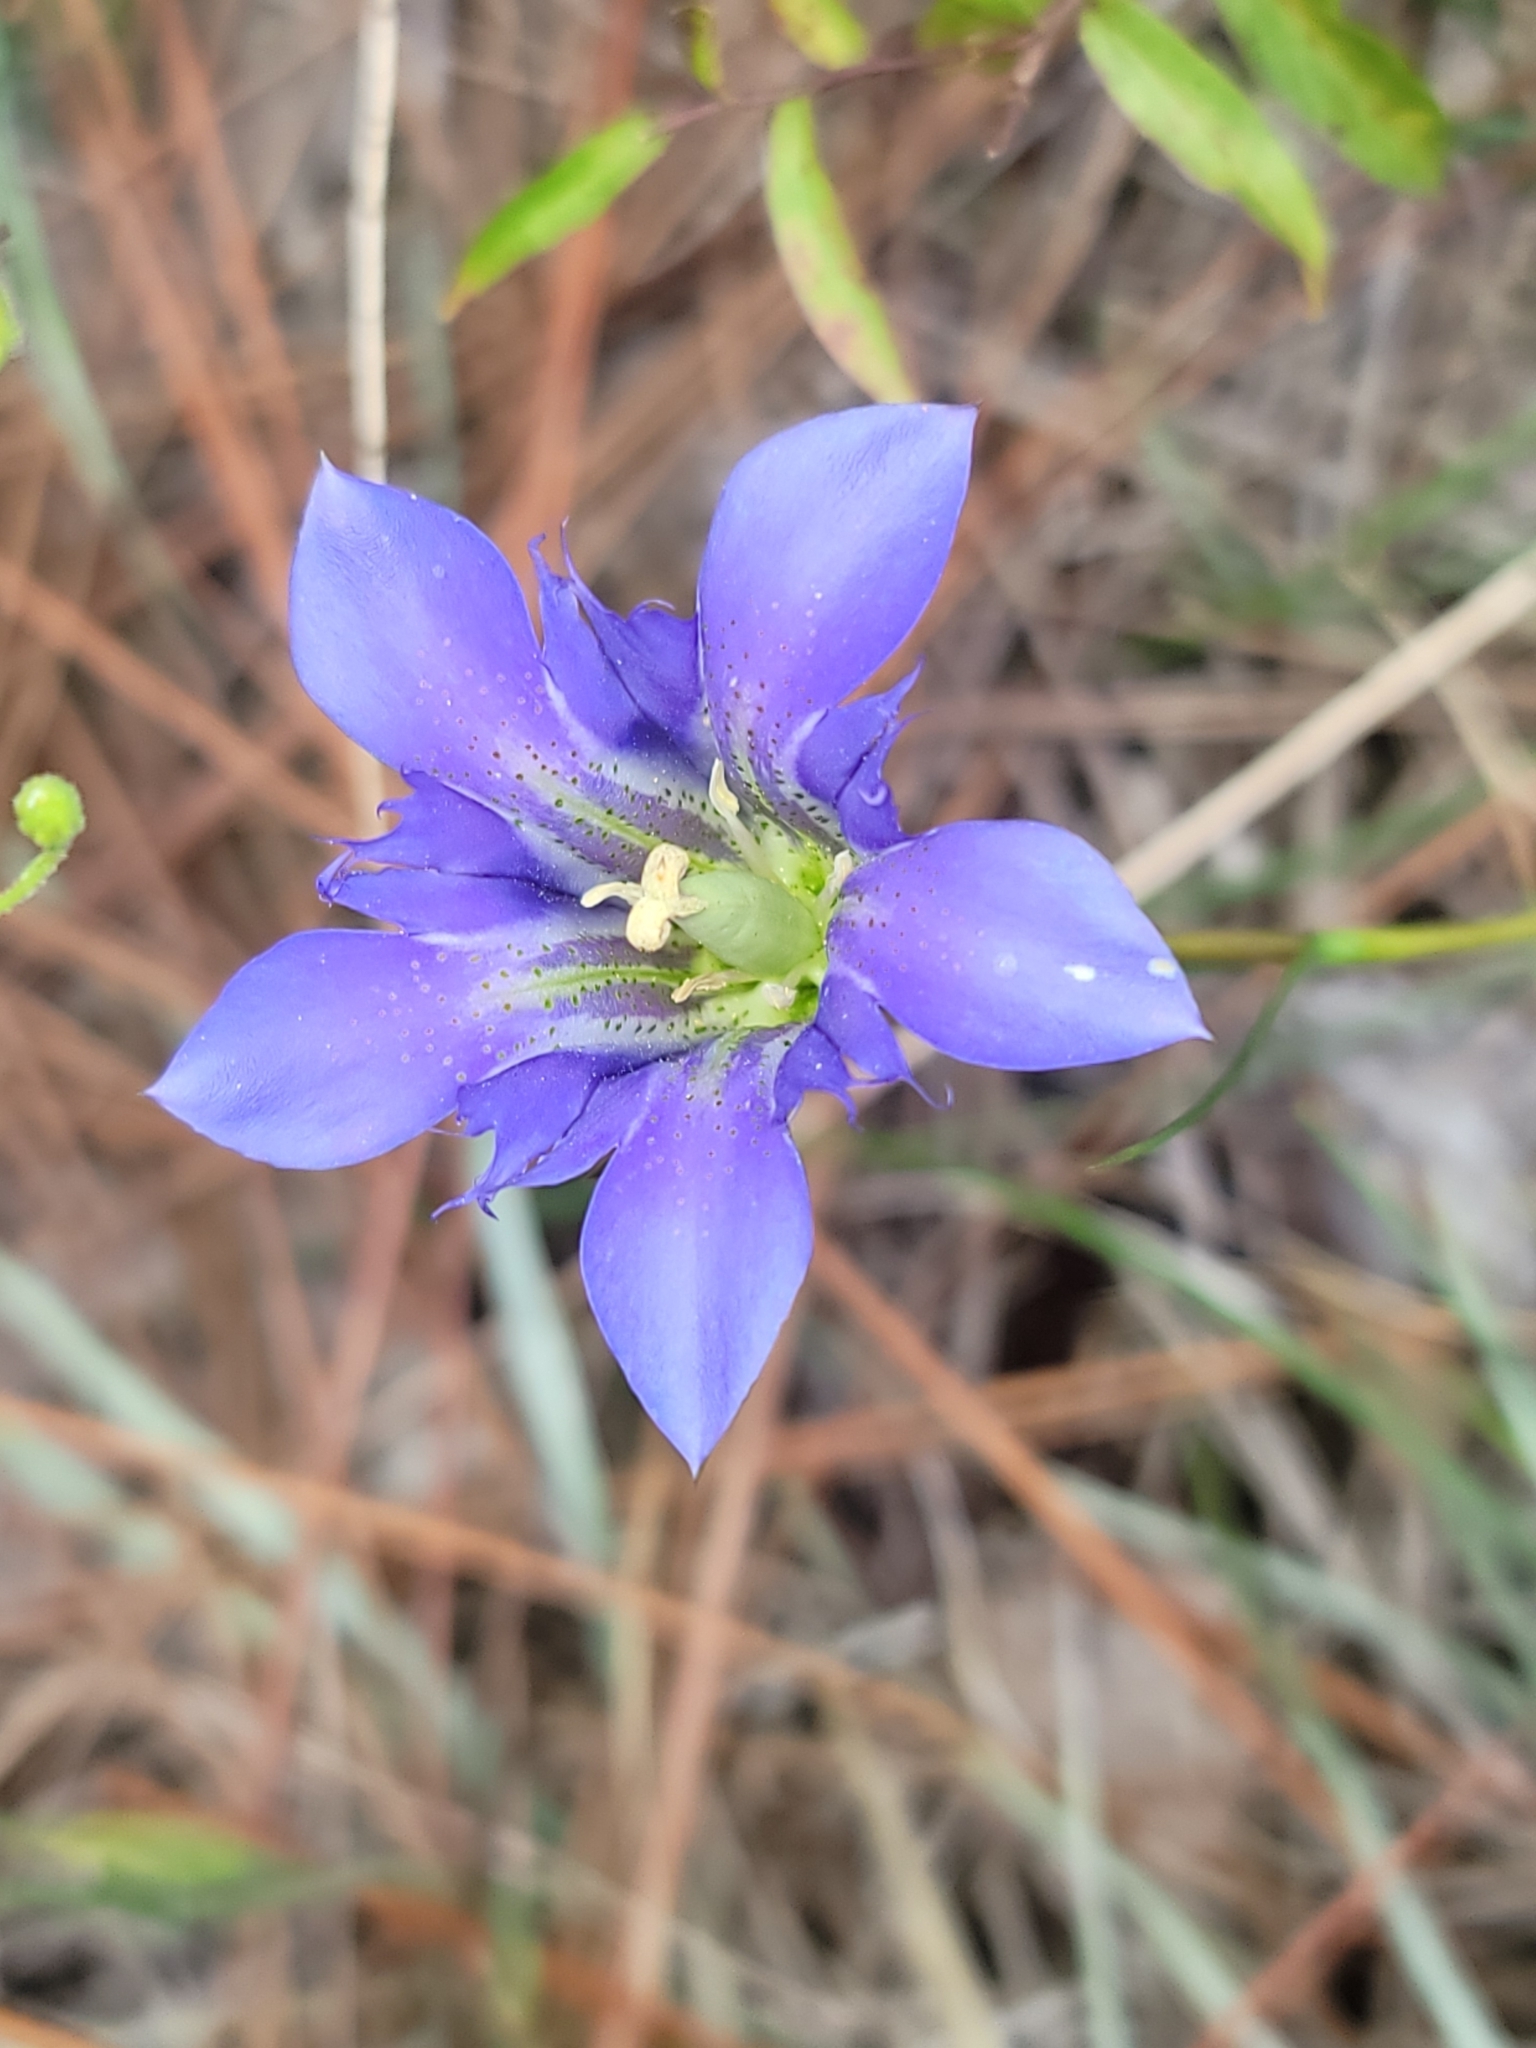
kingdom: Plantae
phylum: Tracheophyta
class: Magnoliopsida
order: Gentianales
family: Gentianaceae
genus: Gentiana
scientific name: Gentiana autumnalis
